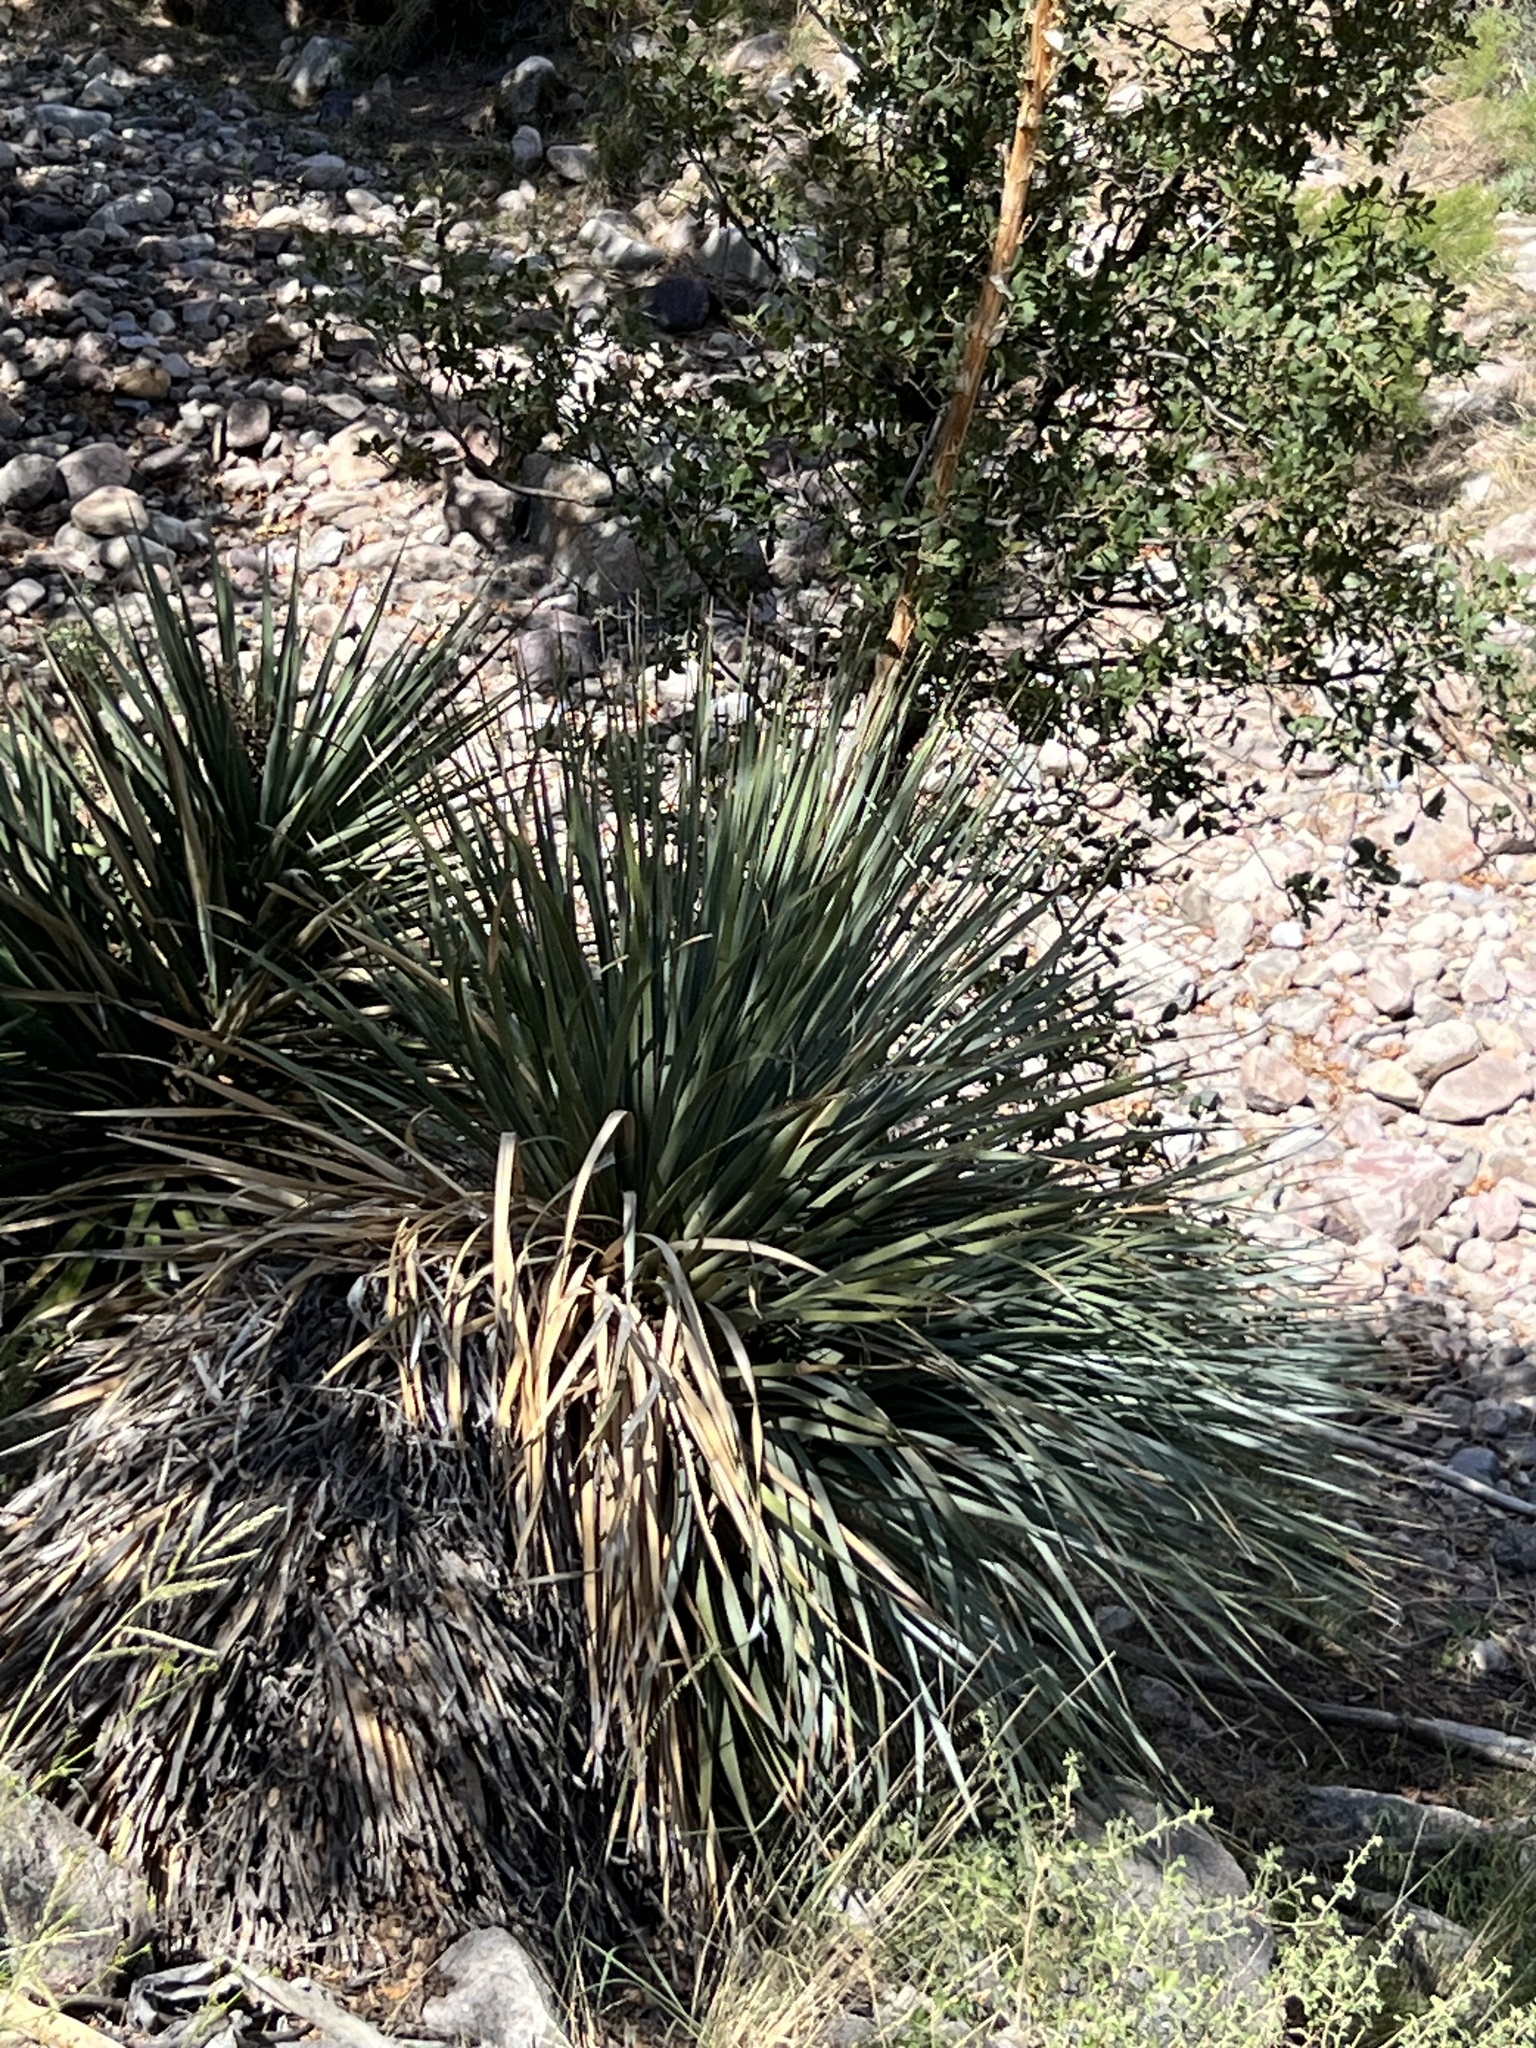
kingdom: Plantae
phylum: Tracheophyta
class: Liliopsida
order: Asparagales
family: Asparagaceae
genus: Dasylirion
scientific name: Dasylirion wheeleri
